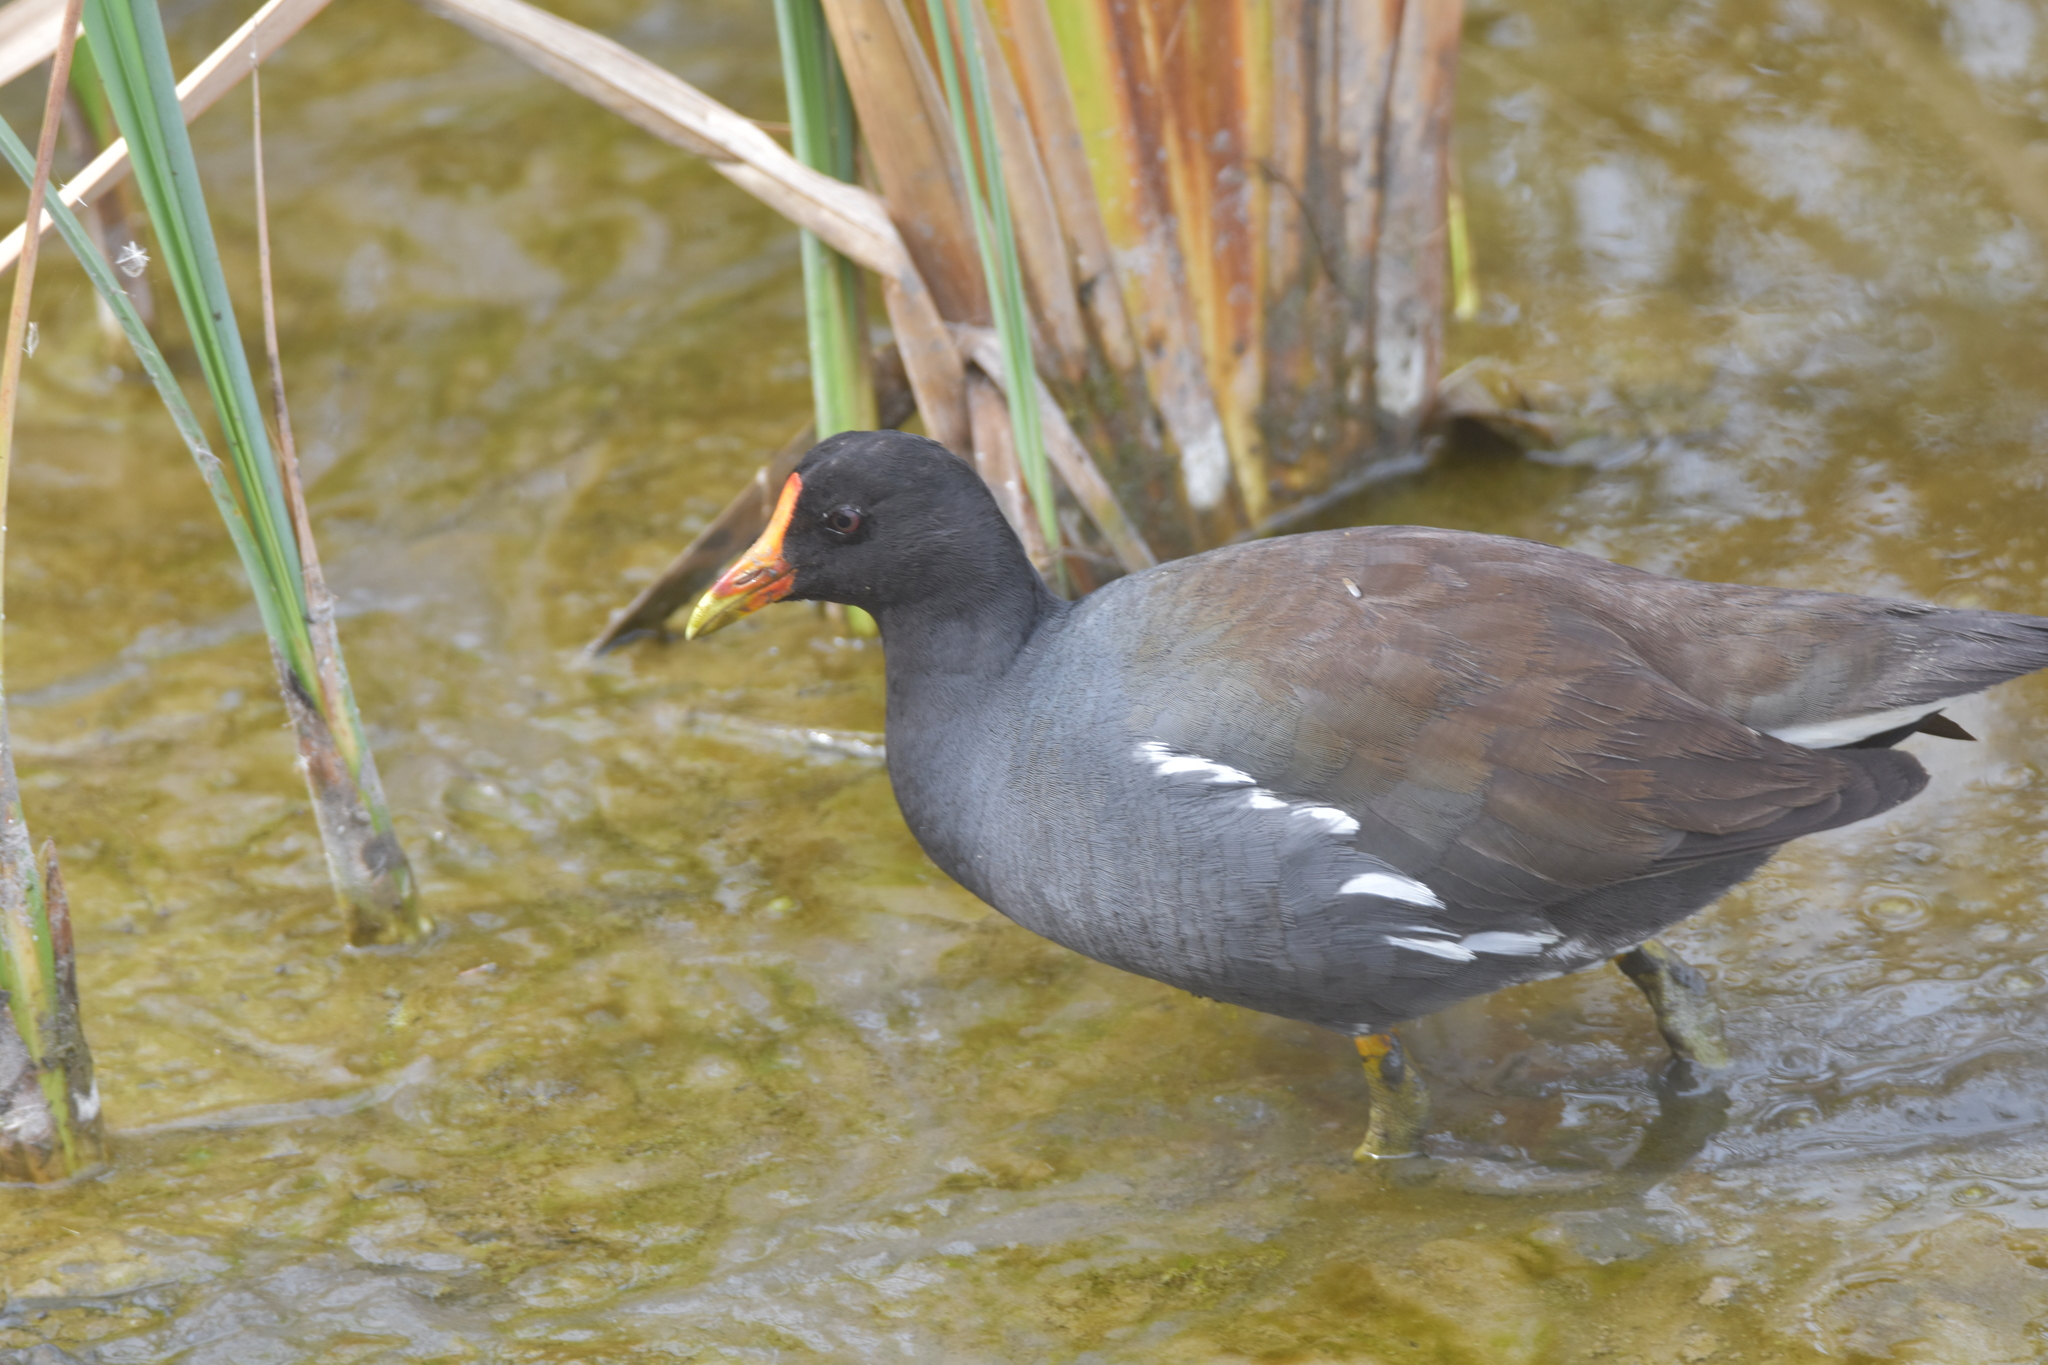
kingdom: Animalia
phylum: Chordata
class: Aves
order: Gruiformes
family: Rallidae
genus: Gallinula
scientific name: Gallinula chloropus
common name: Common moorhen
